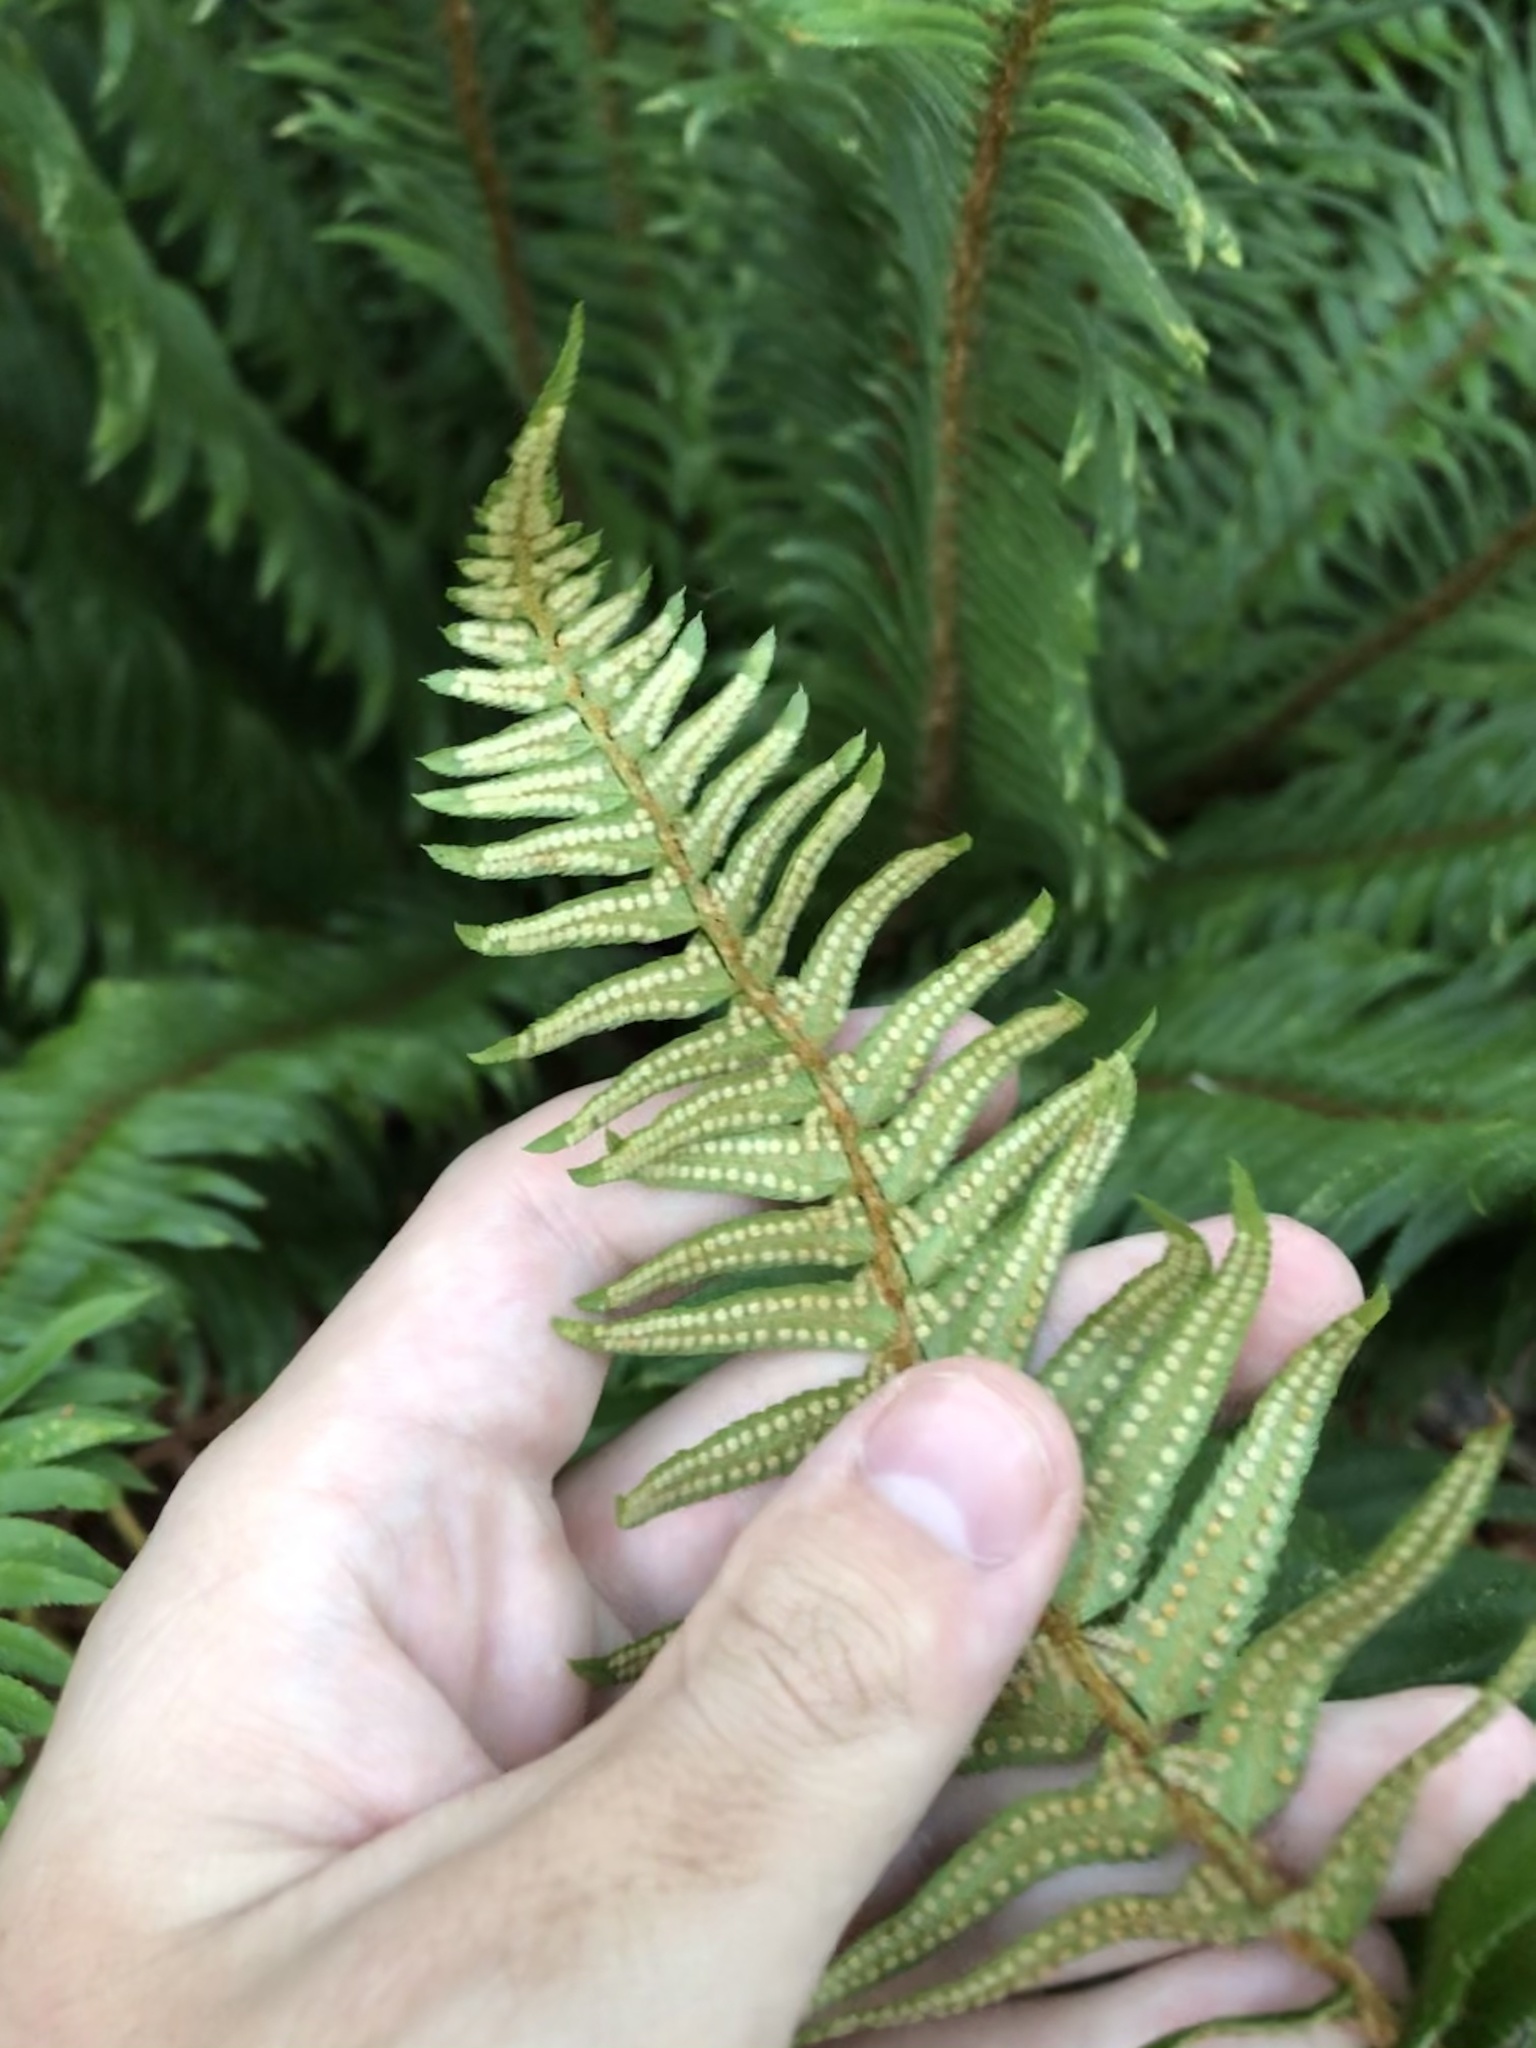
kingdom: Plantae
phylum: Tracheophyta
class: Polypodiopsida
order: Polypodiales
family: Dryopteridaceae
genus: Polystichum
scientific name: Polystichum munitum
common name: Western sword-fern
